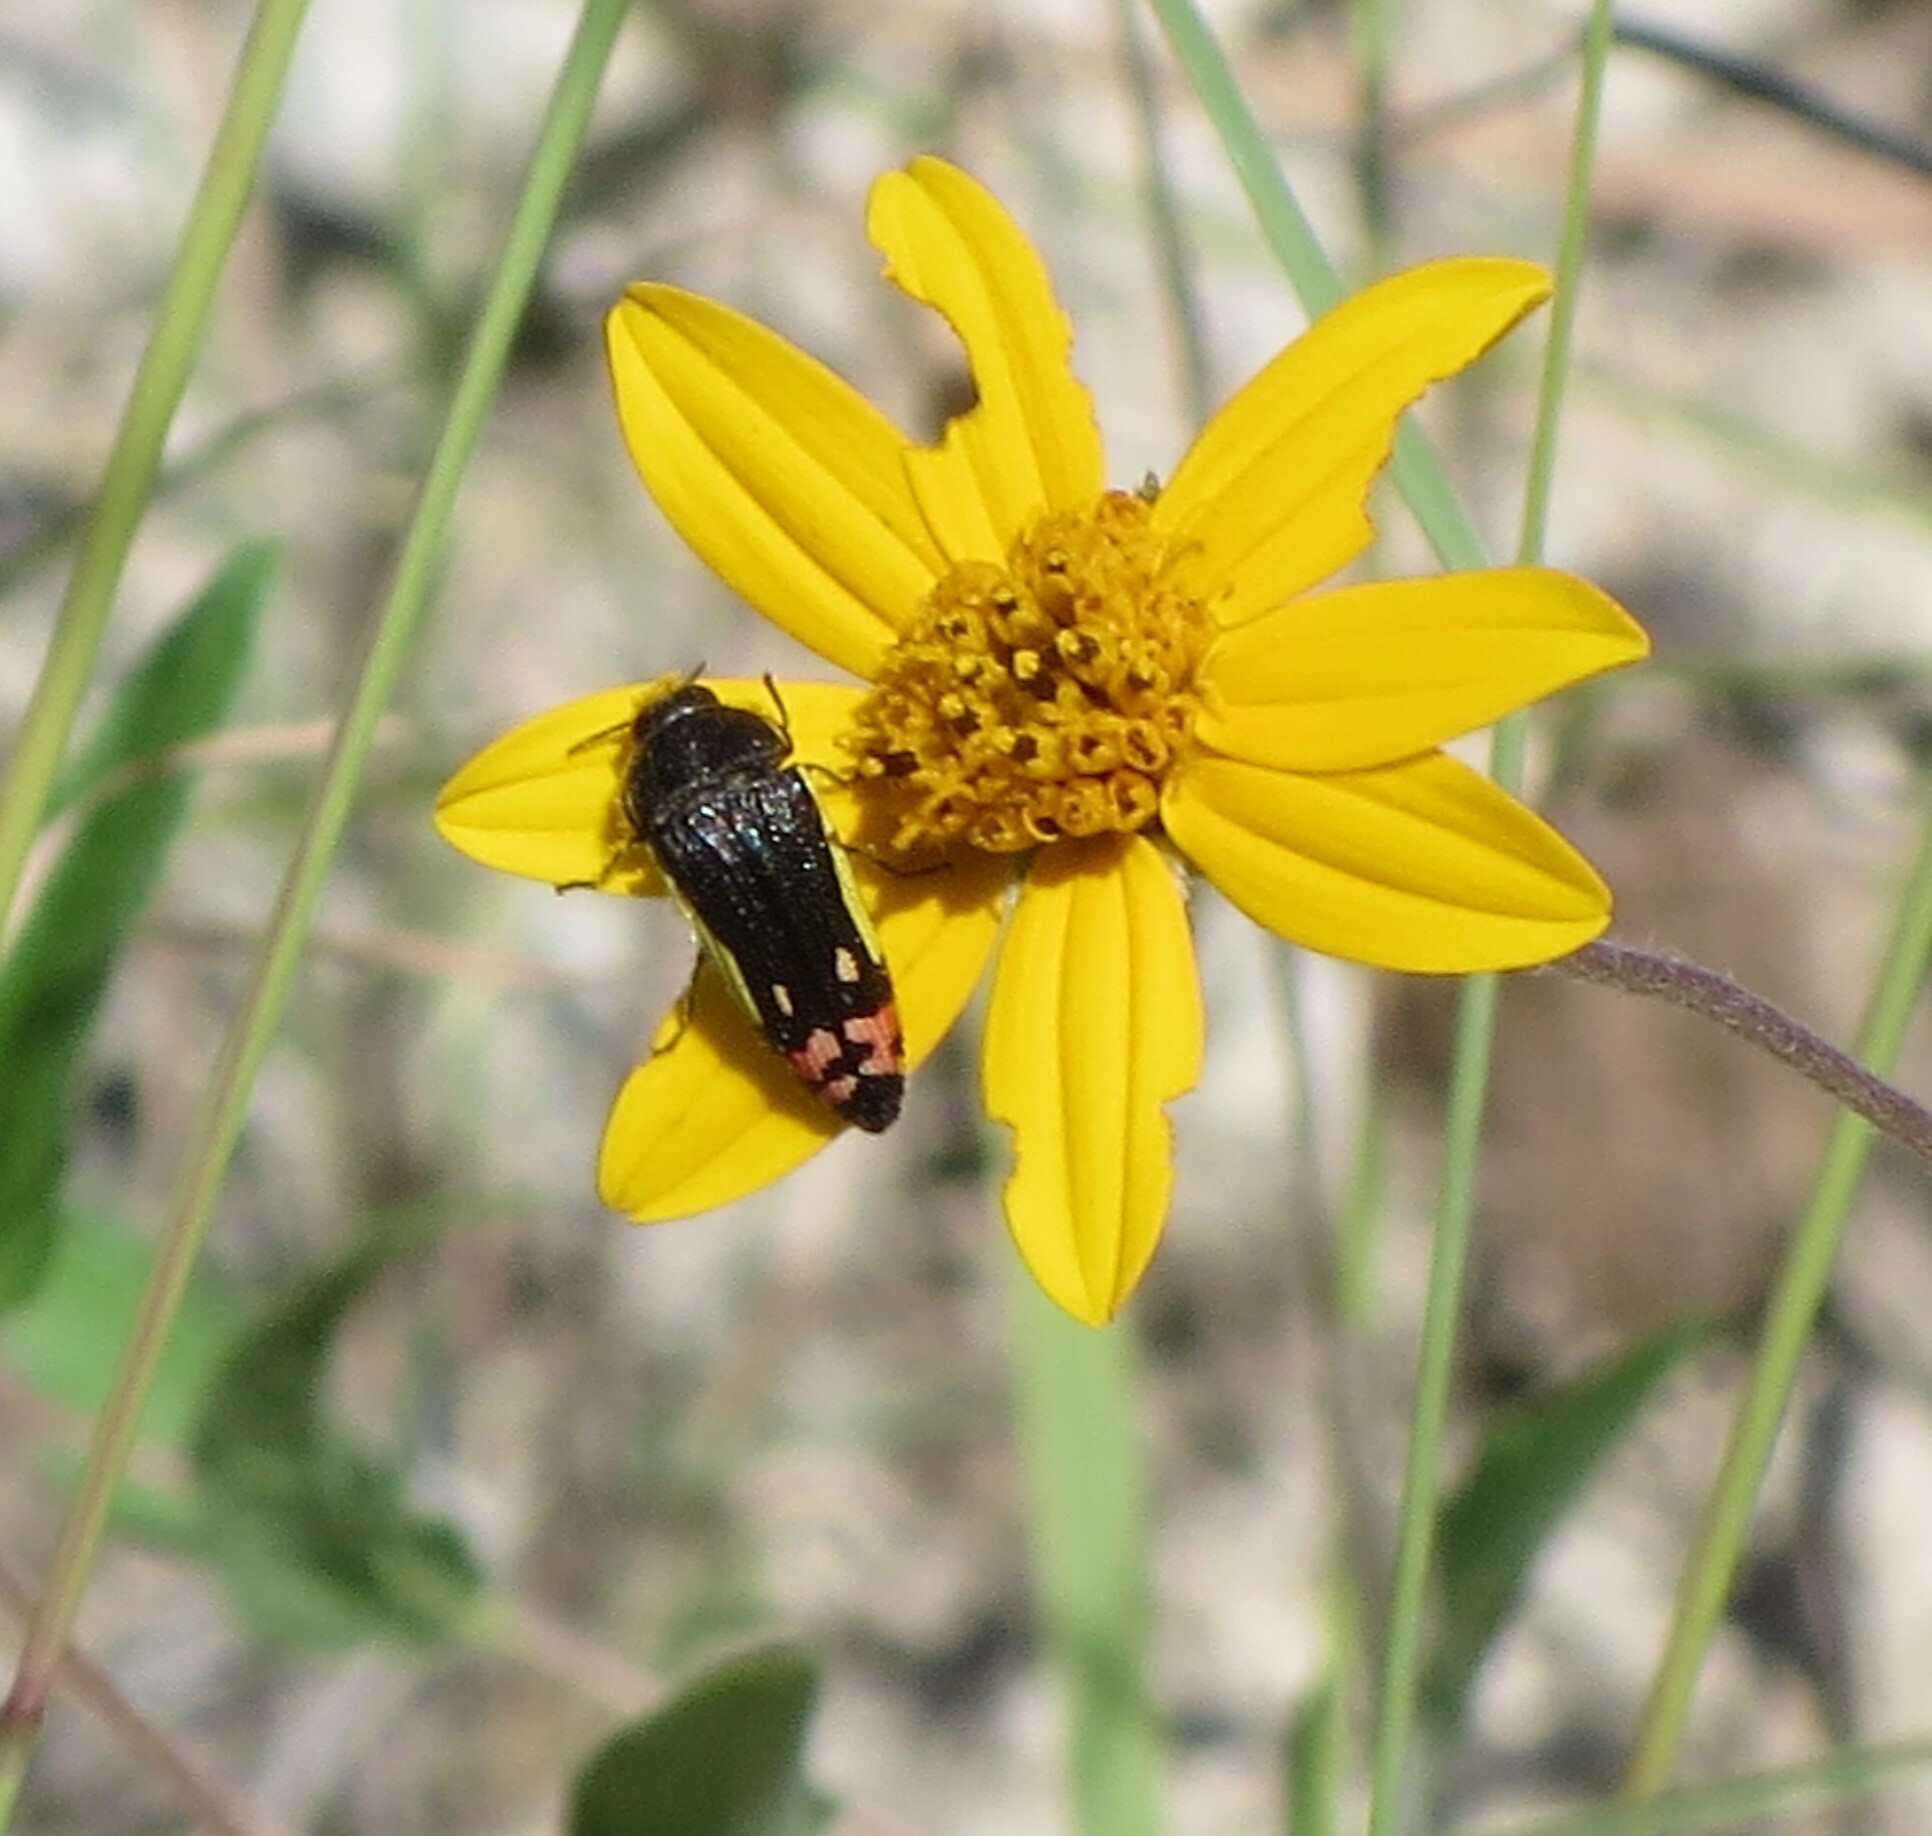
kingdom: Animalia
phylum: Arthropoda
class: Insecta
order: Coleoptera
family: Buprestidae
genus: Acmaeodera
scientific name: Acmaeodera flavomarginata
